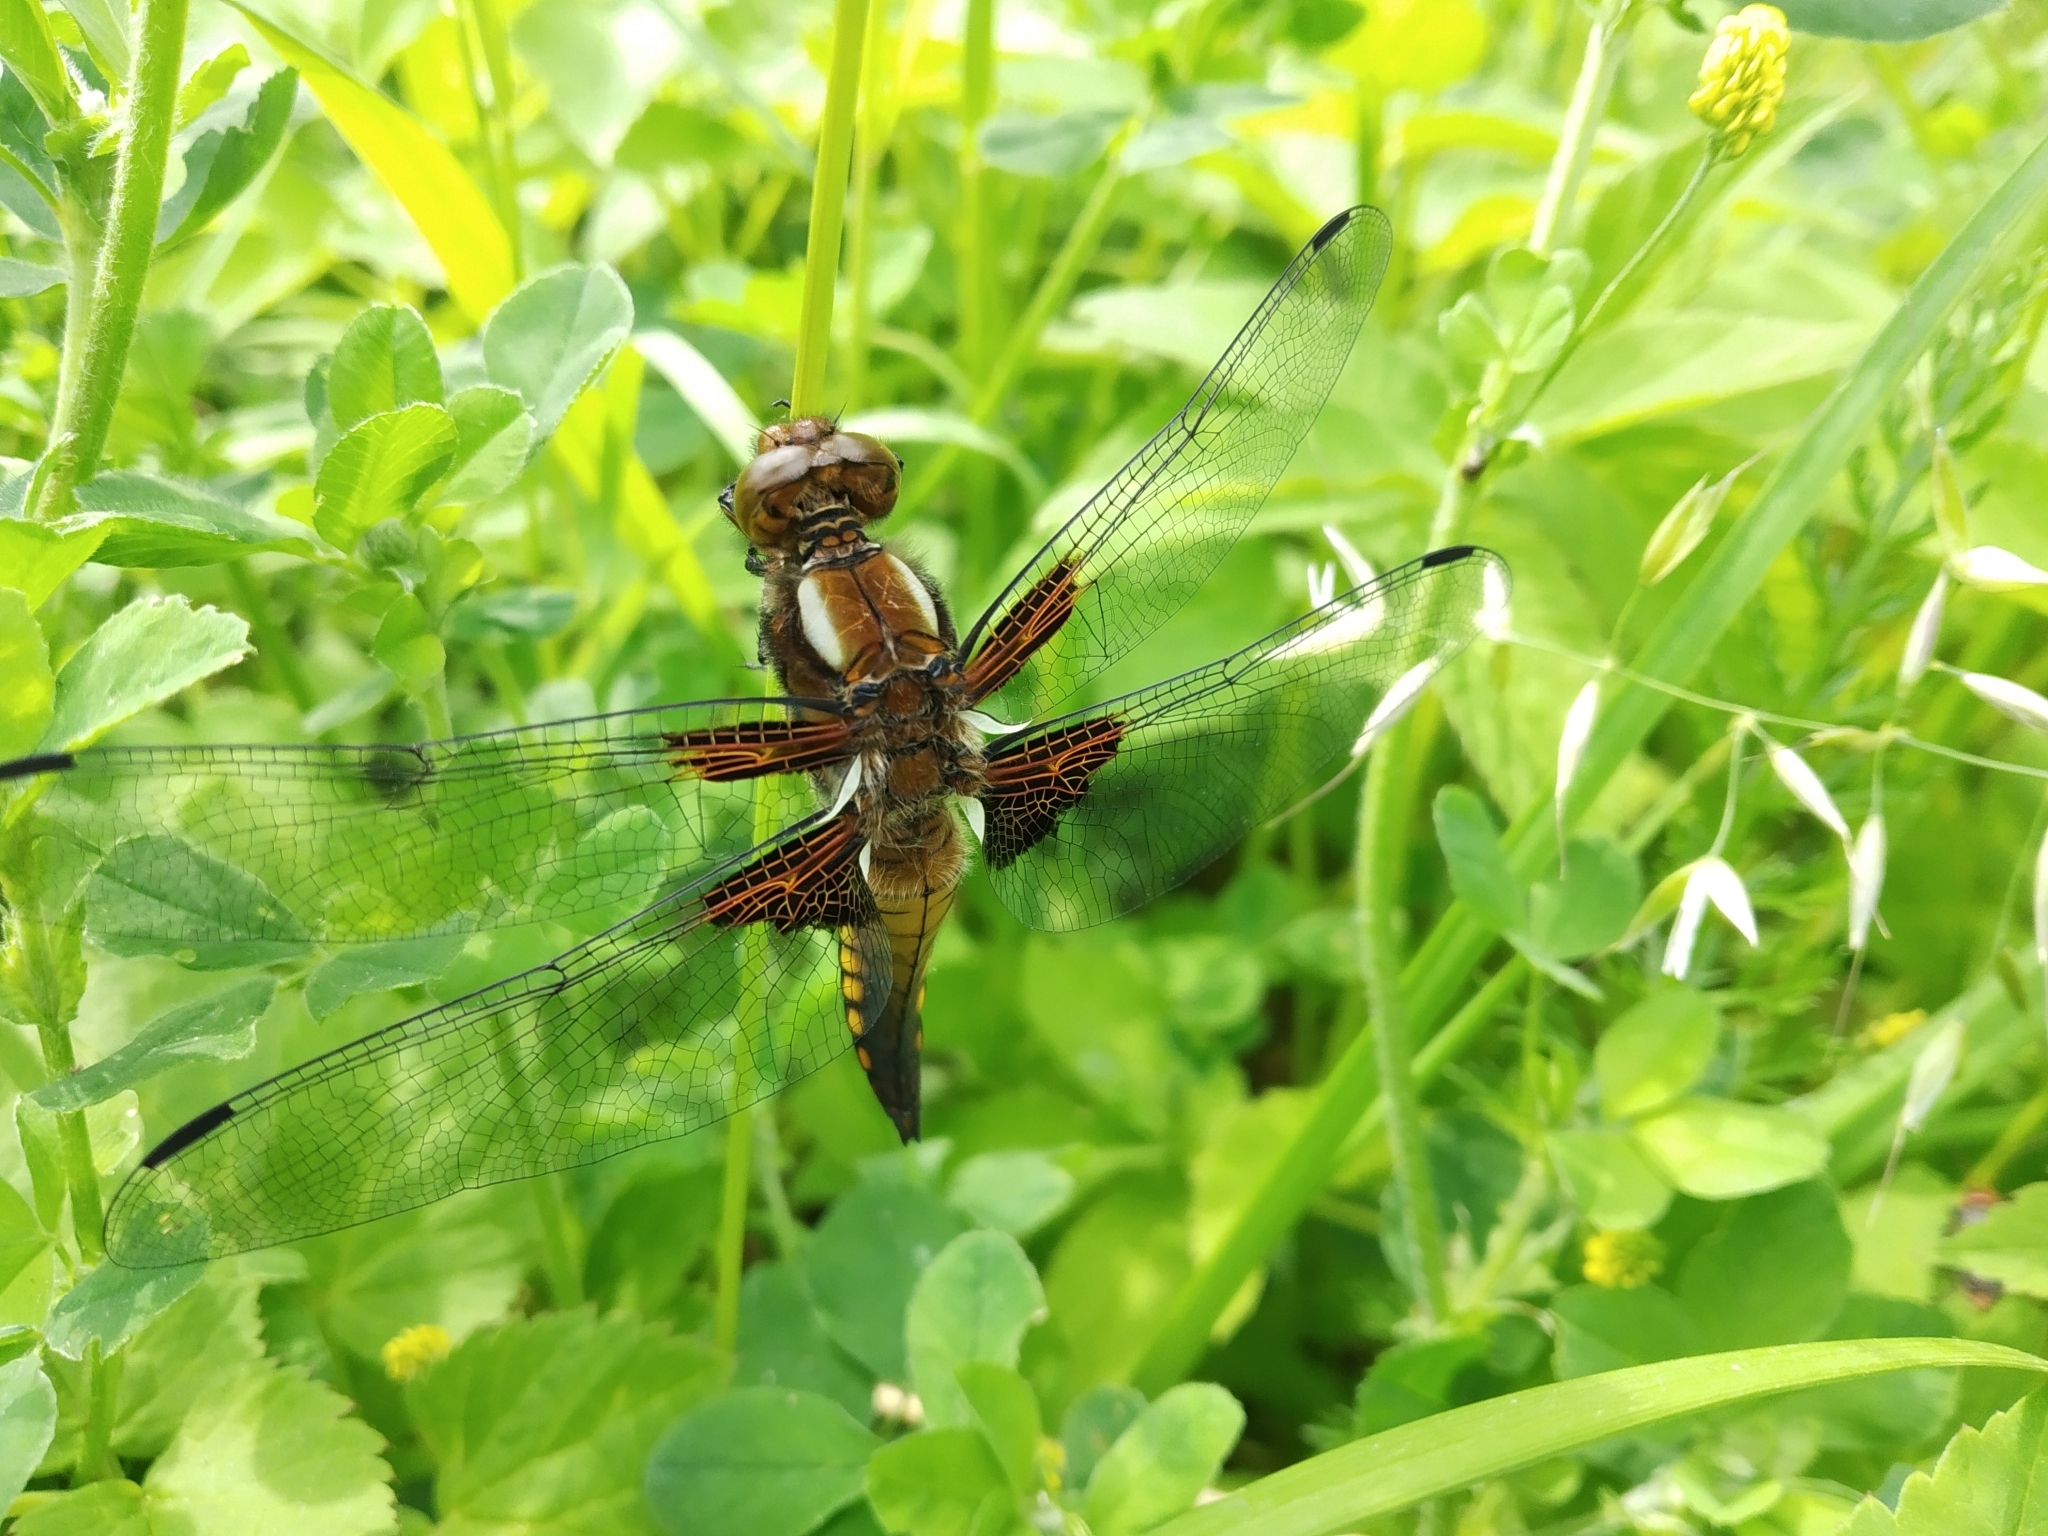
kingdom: Animalia
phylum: Arthropoda
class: Insecta
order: Odonata
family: Libellulidae
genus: Libellula
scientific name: Libellula depressa
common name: Broad-bodied chaser
